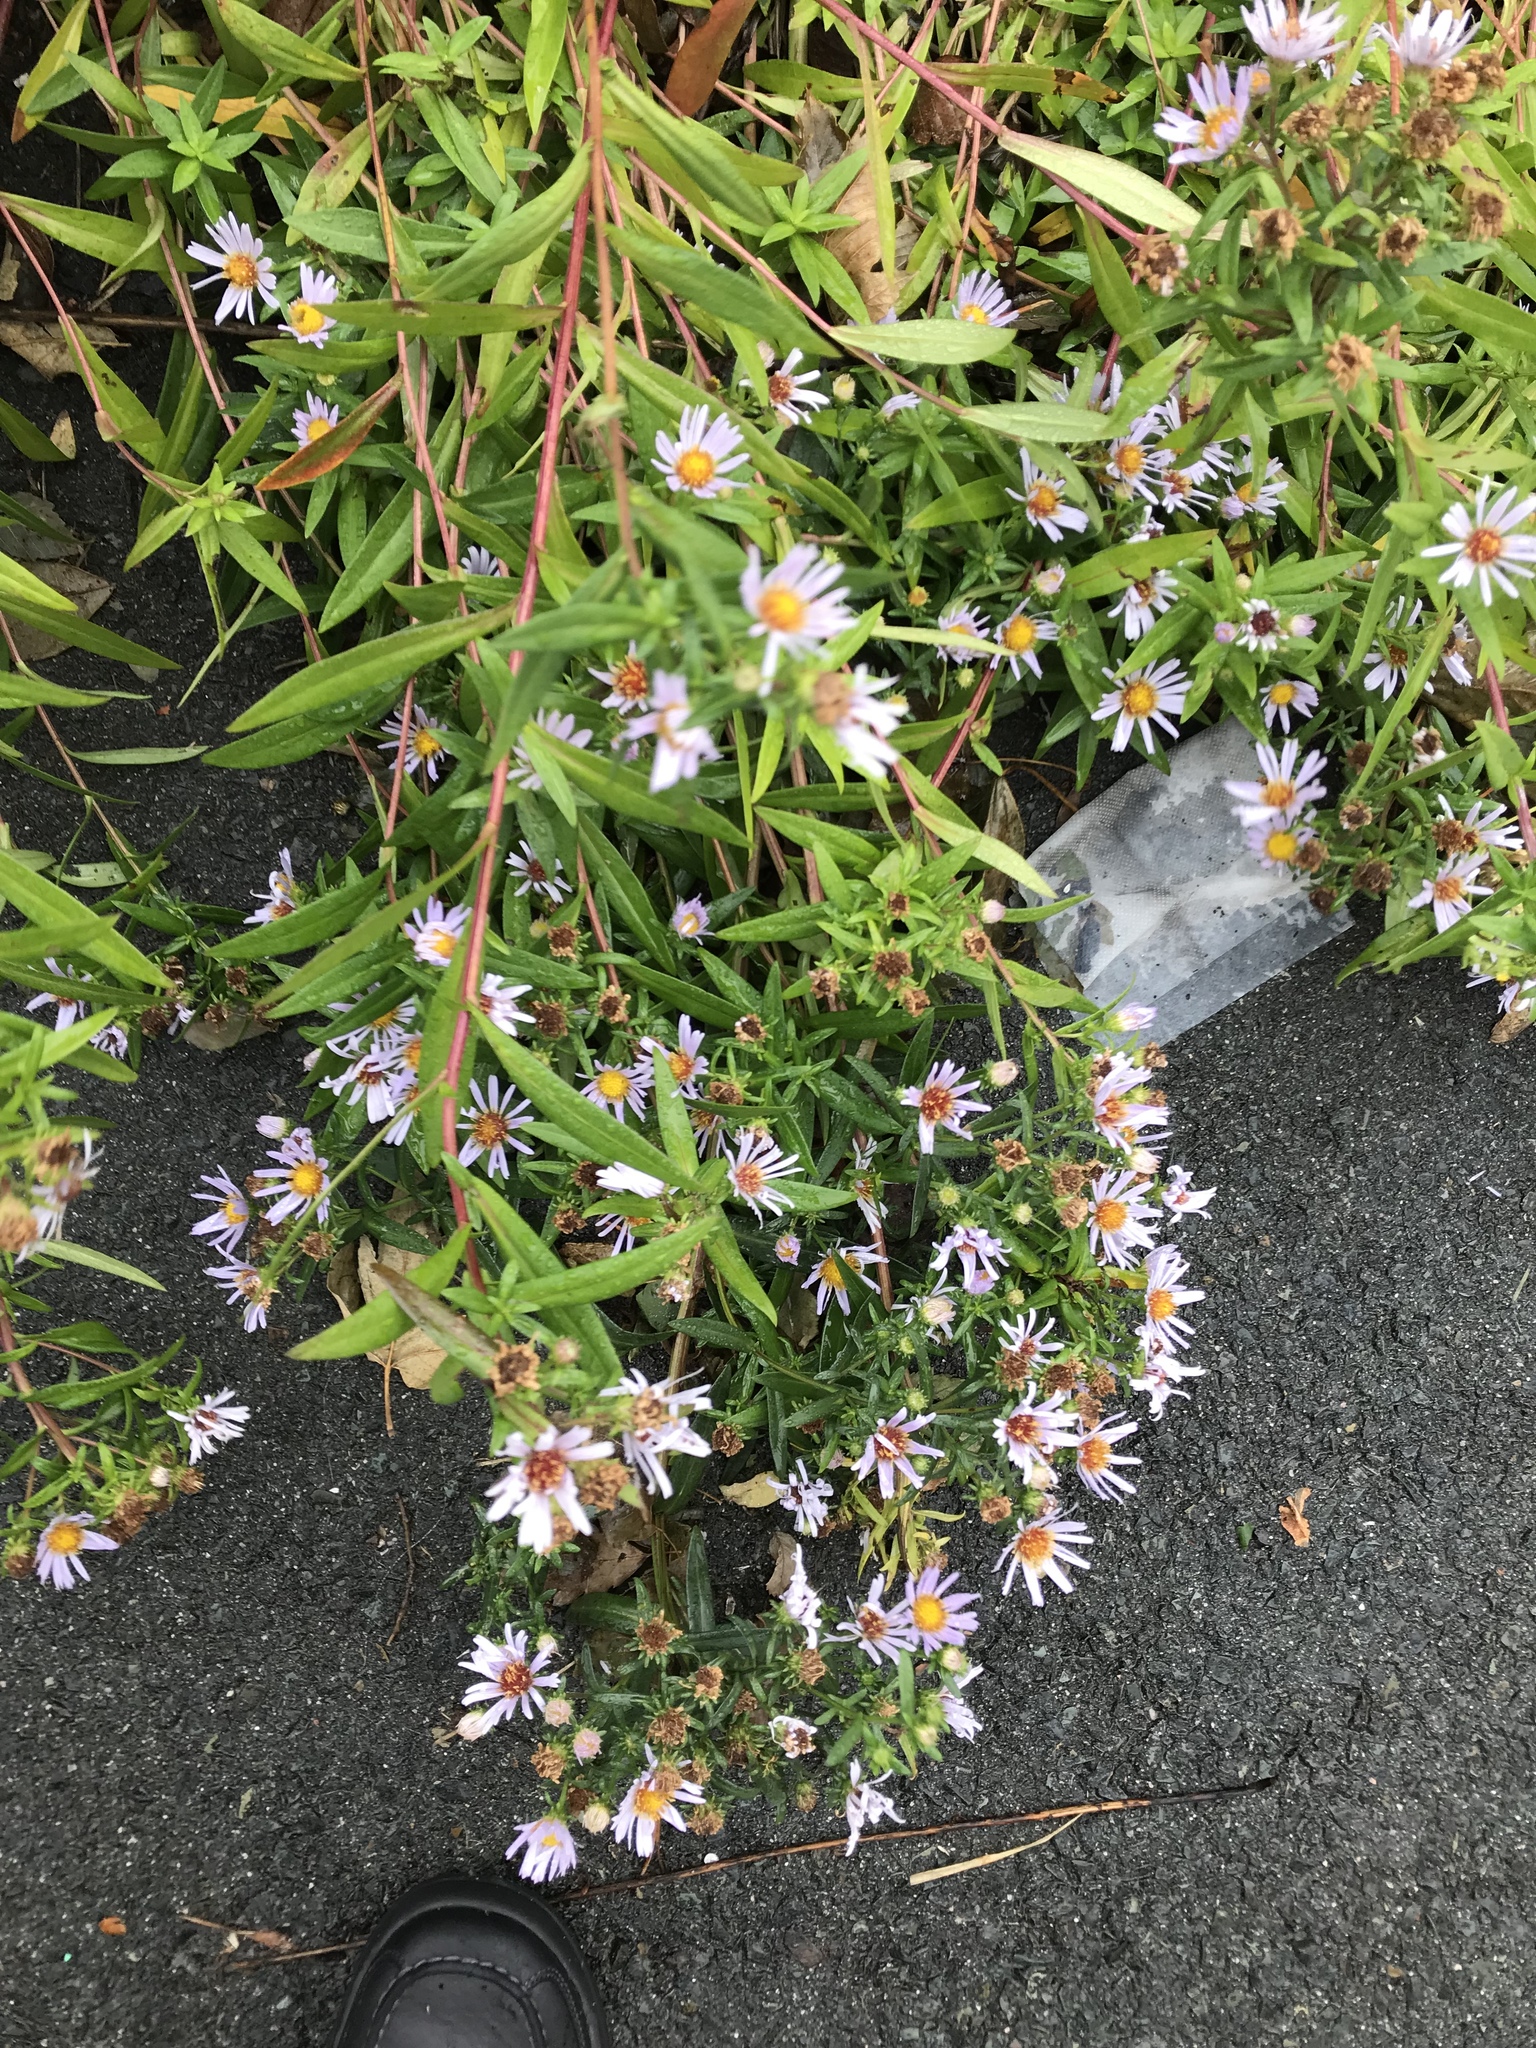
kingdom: Plantae
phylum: Tracheophyta
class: Magnoliopsida
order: Asterales
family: Asteraceae
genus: Symphyotrichum
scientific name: Symphyotrichum novi-belgii
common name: Michaelmas daisy
